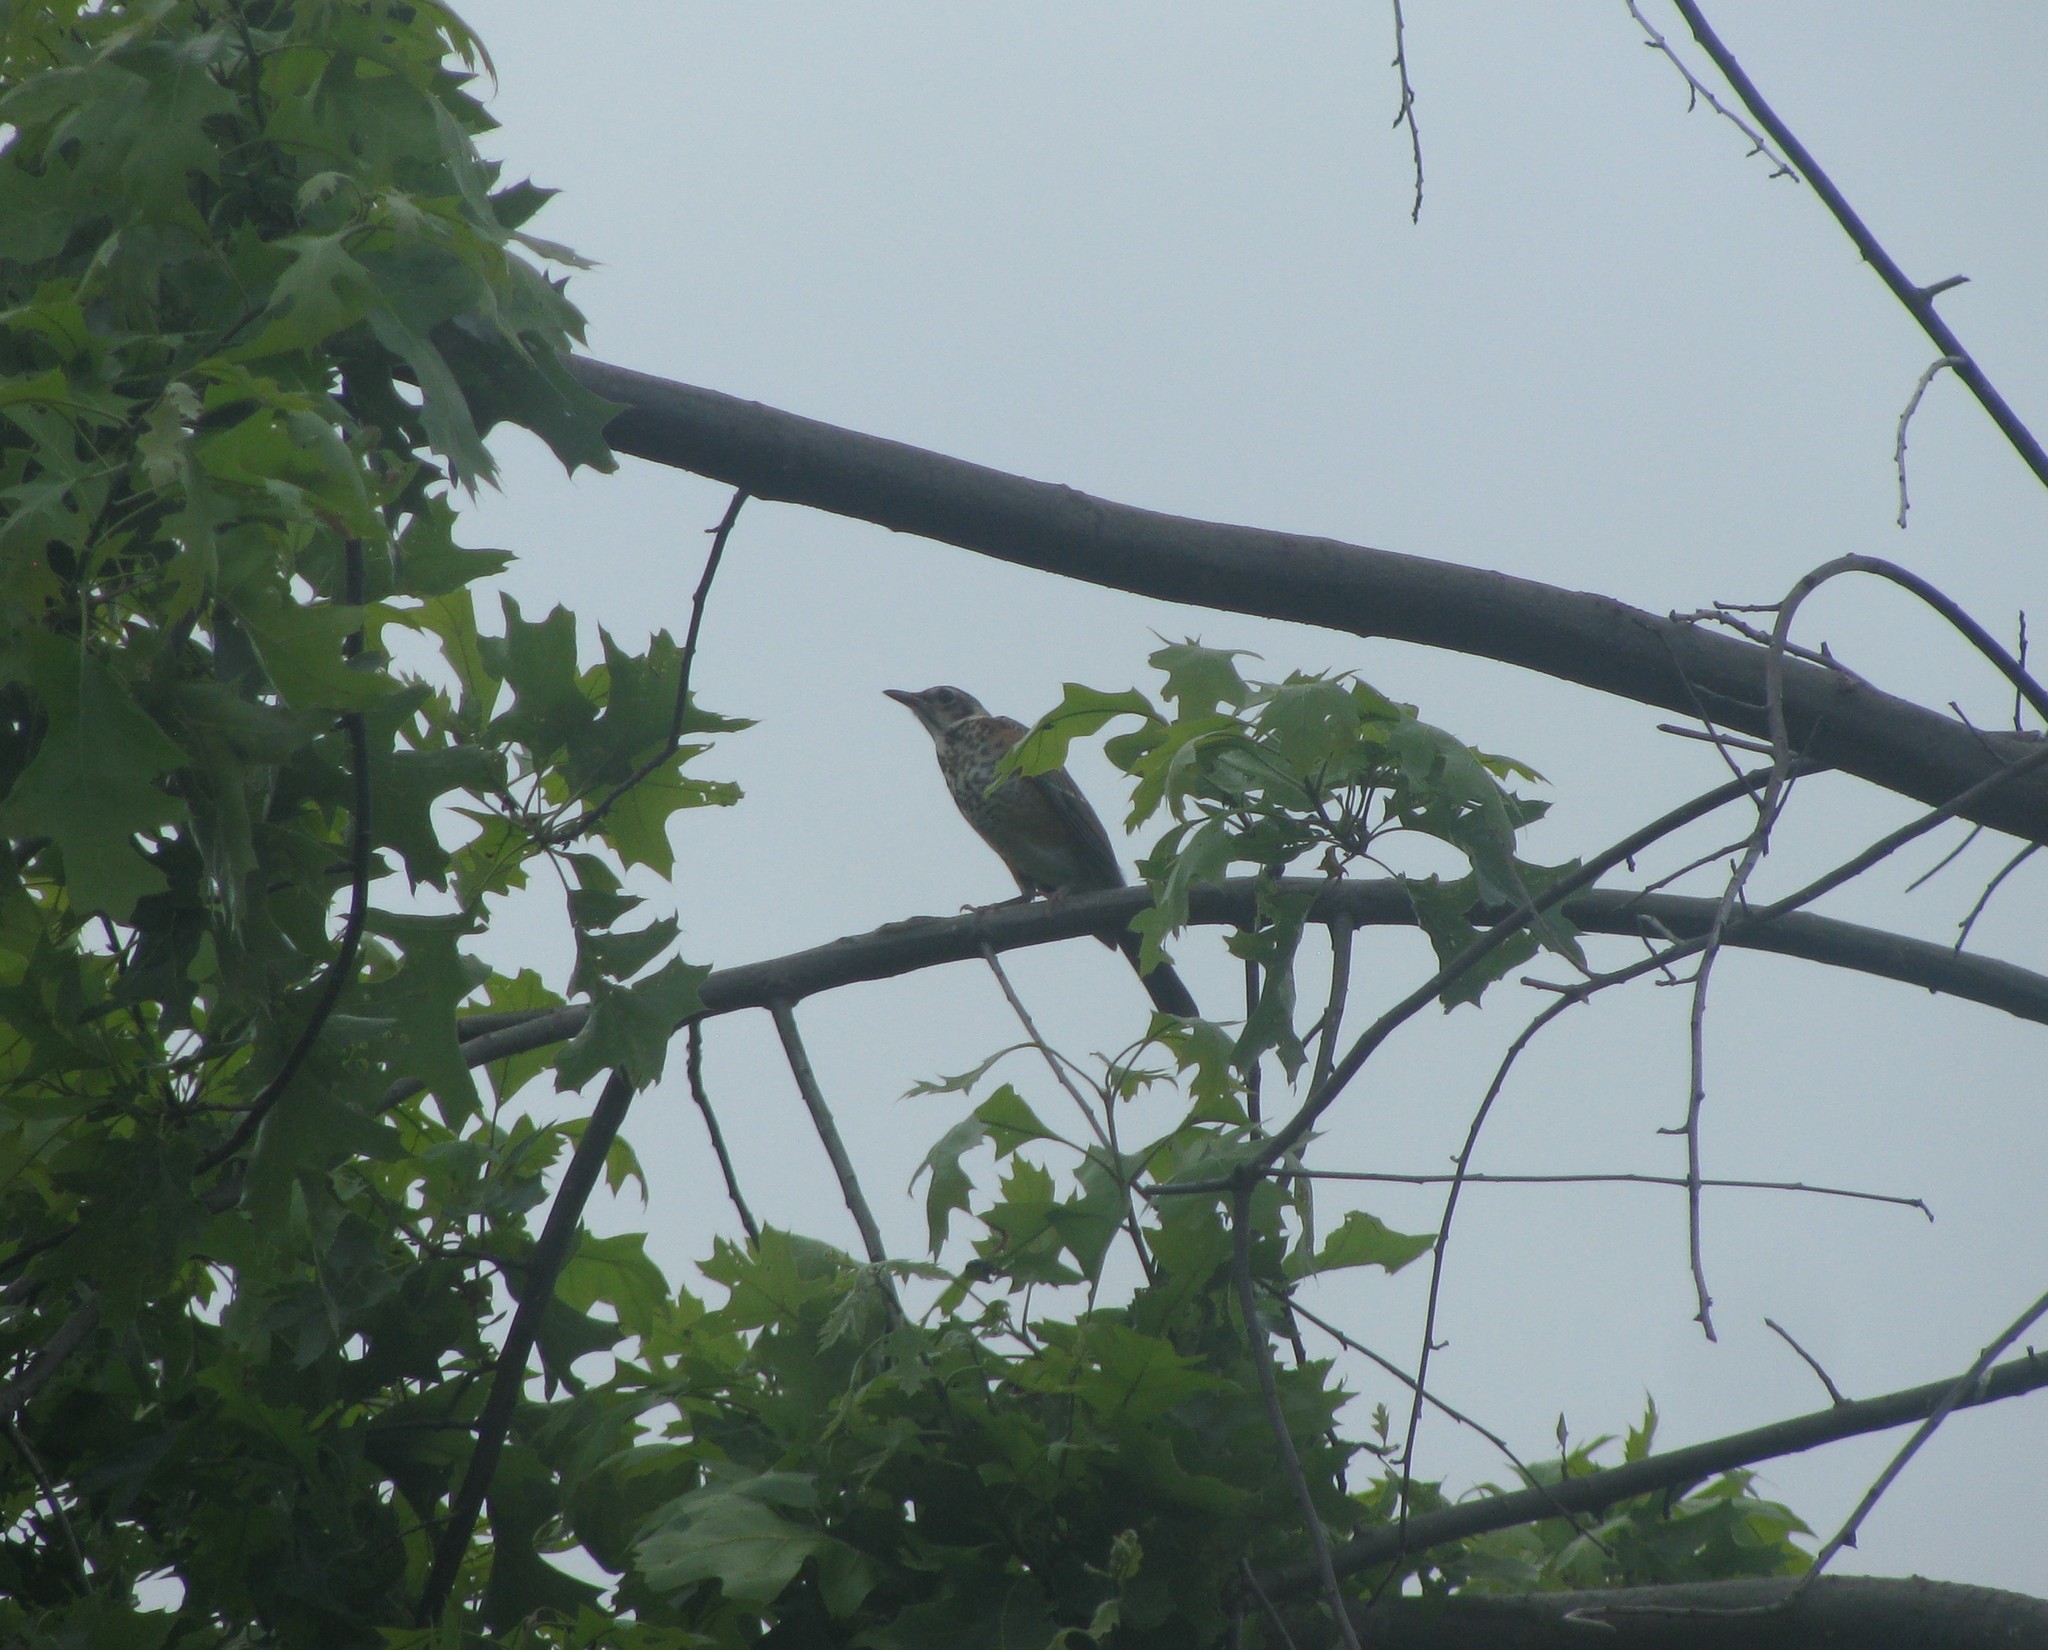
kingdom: Animalia
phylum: Chordata
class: Aves
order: Passeriformes
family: Turdidae
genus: Turdus
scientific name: Turdus migratorius
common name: American robin
